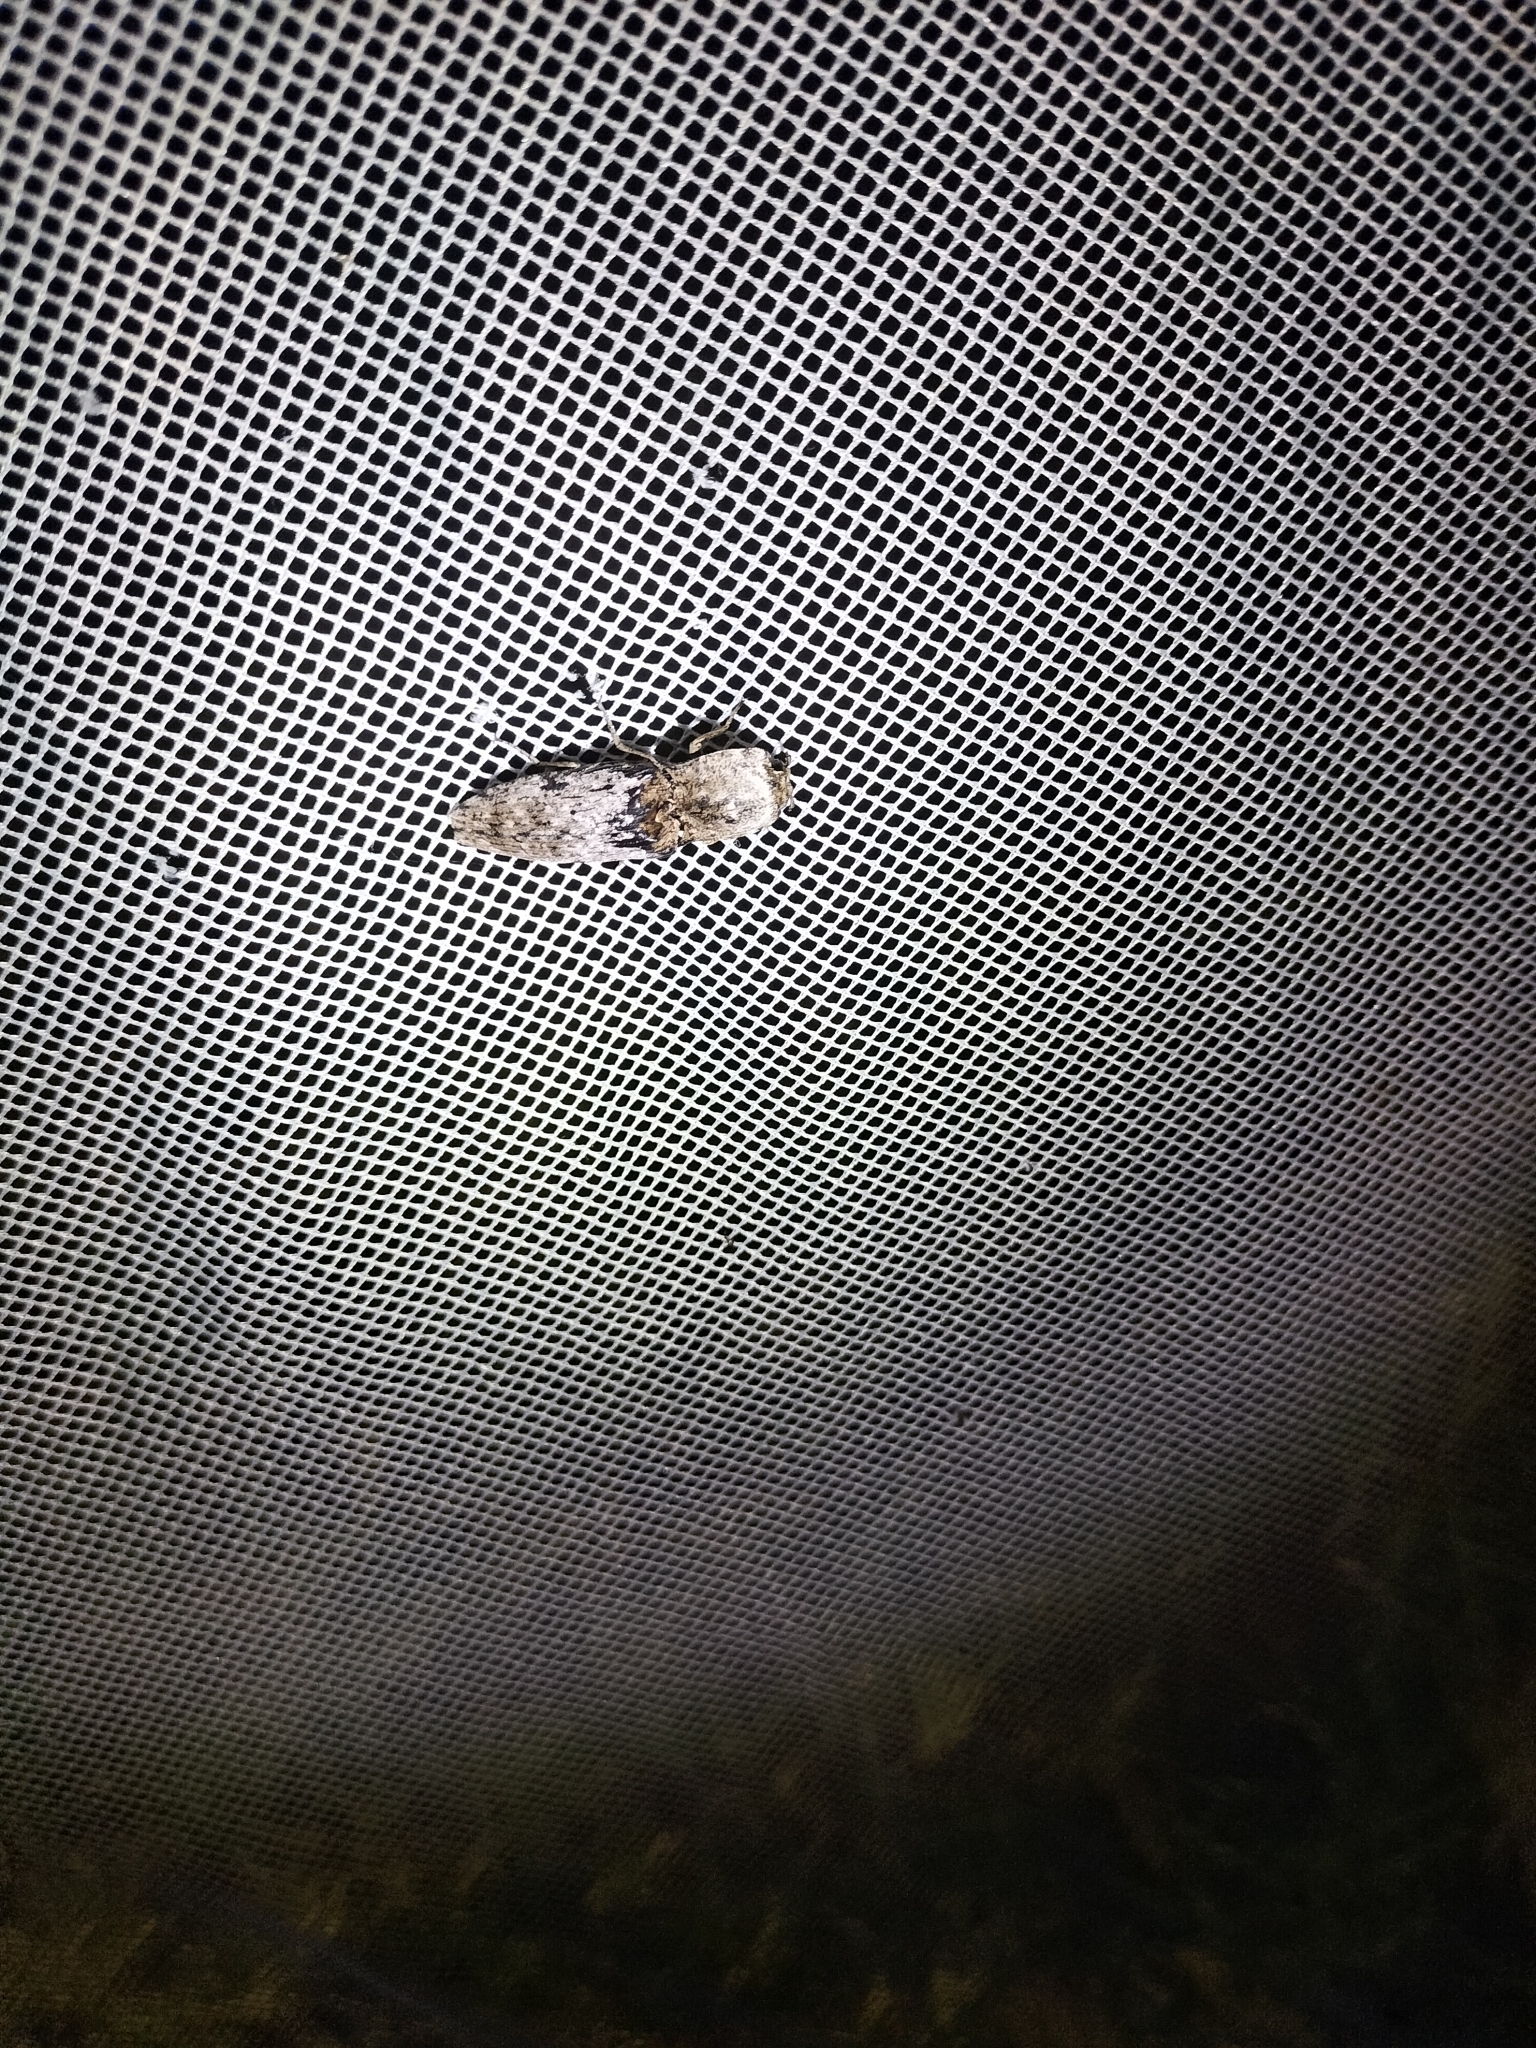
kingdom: Animalia
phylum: Arthropoda
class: Insecta
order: Coleoptera
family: Elateridae
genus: Cryptalaus
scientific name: Cryptalaus
